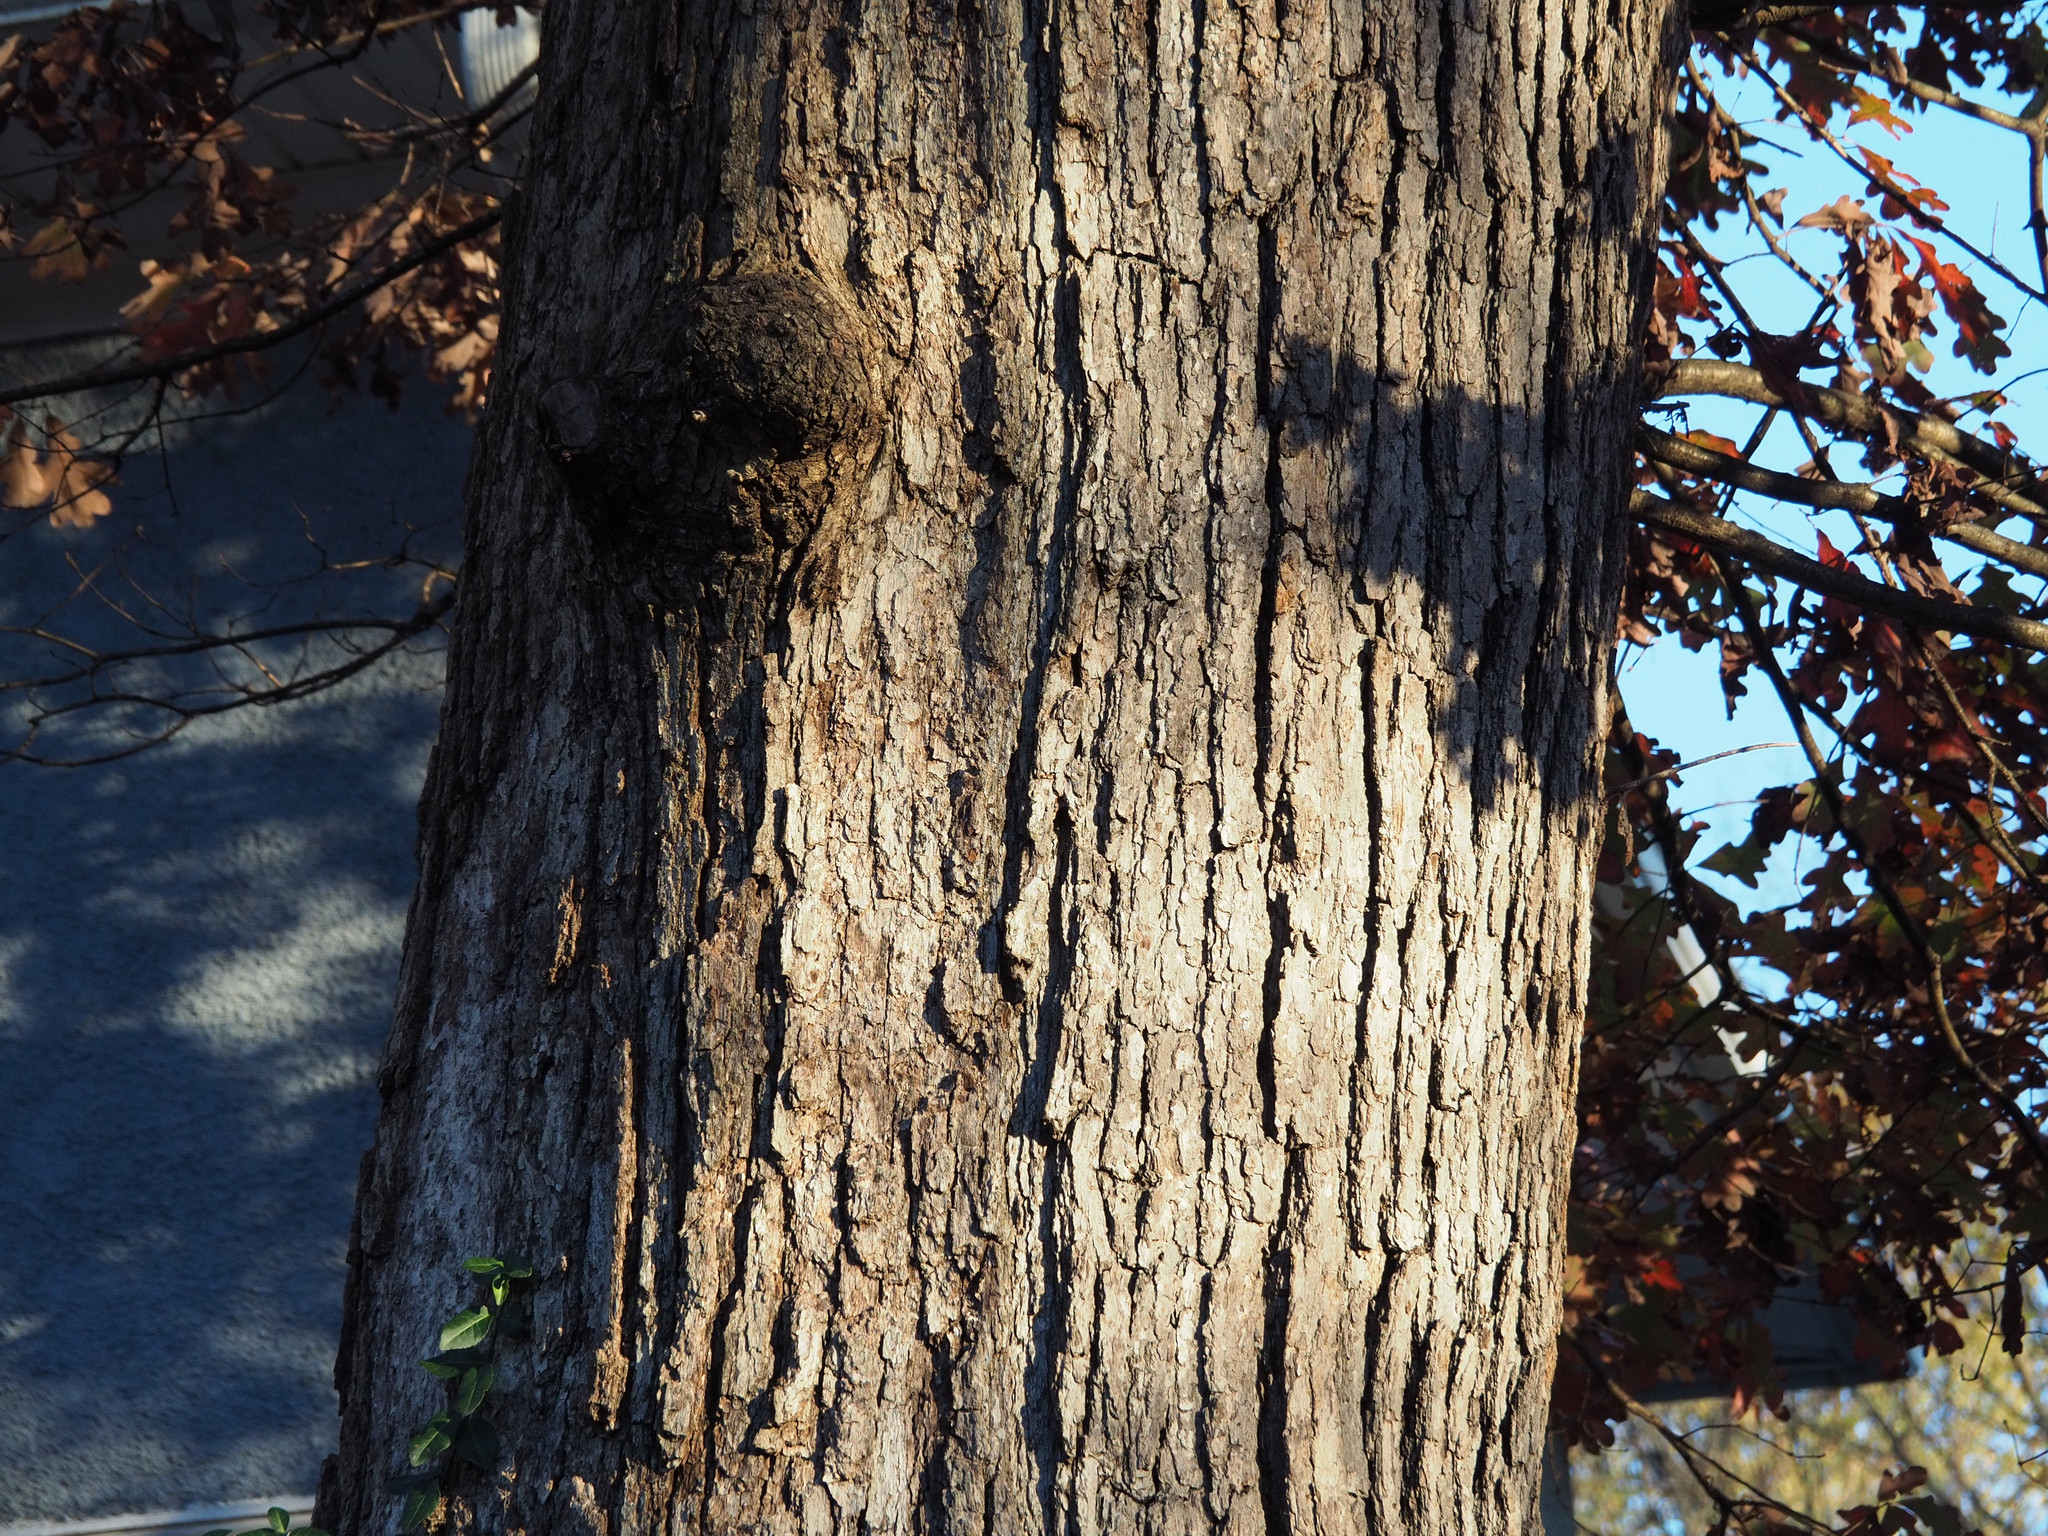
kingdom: Plantae
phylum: Tracheophyta
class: Magnoliopsida
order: Fagales
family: Fagaceae
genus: Quercus
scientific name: Quercus alba
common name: White oak
